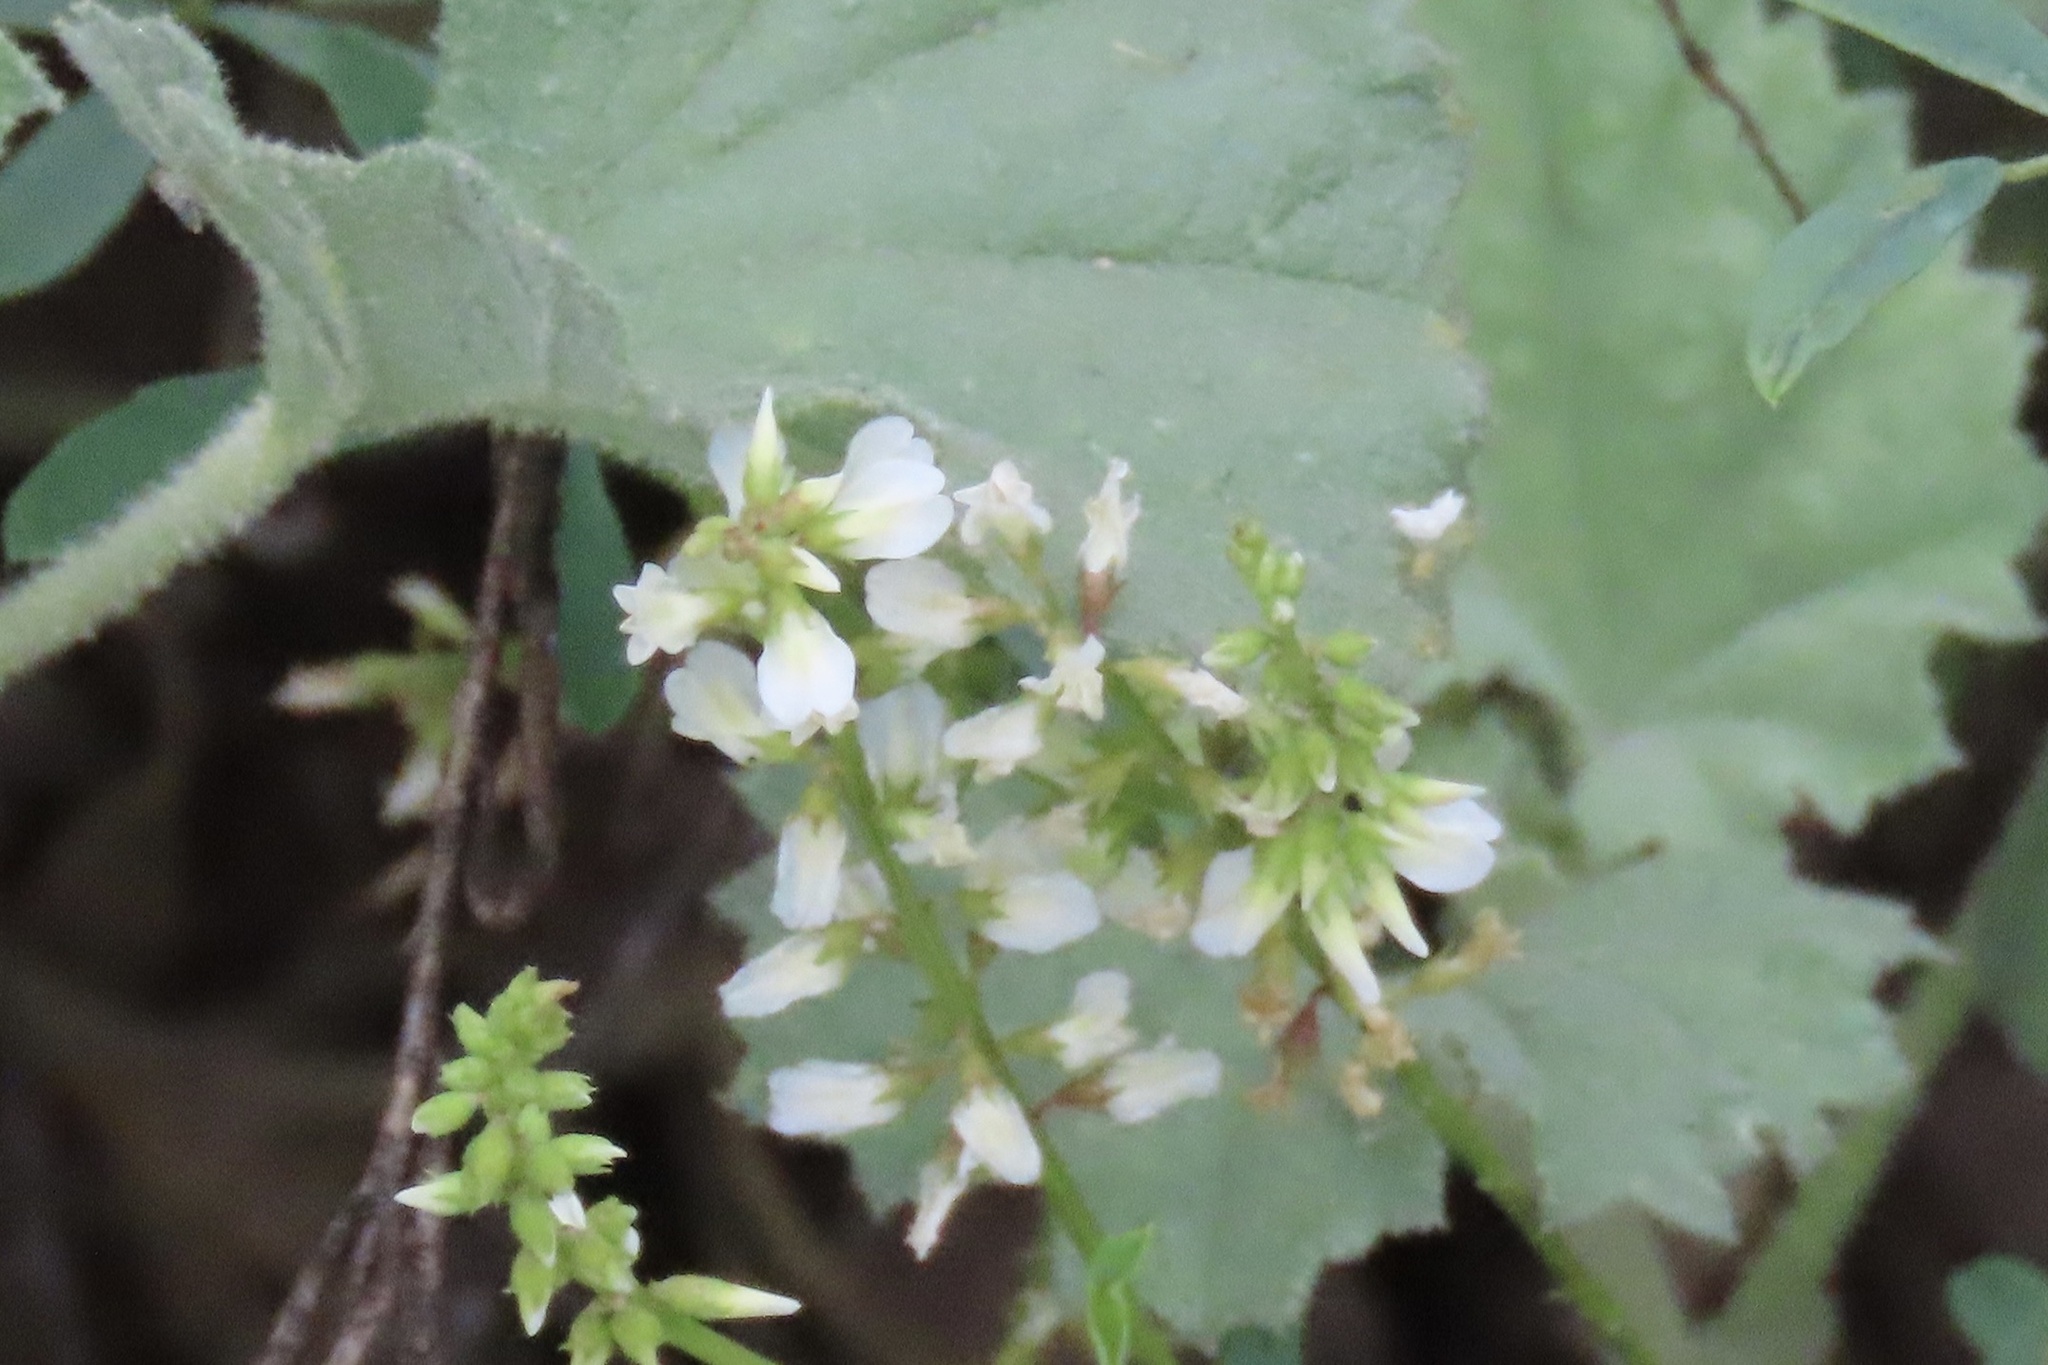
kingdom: Plantae
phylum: Tracheophyta
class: Magnoliopsida
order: Fabales
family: Fabaceae
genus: Melilotus
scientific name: Melilotus albus
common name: White melilot
